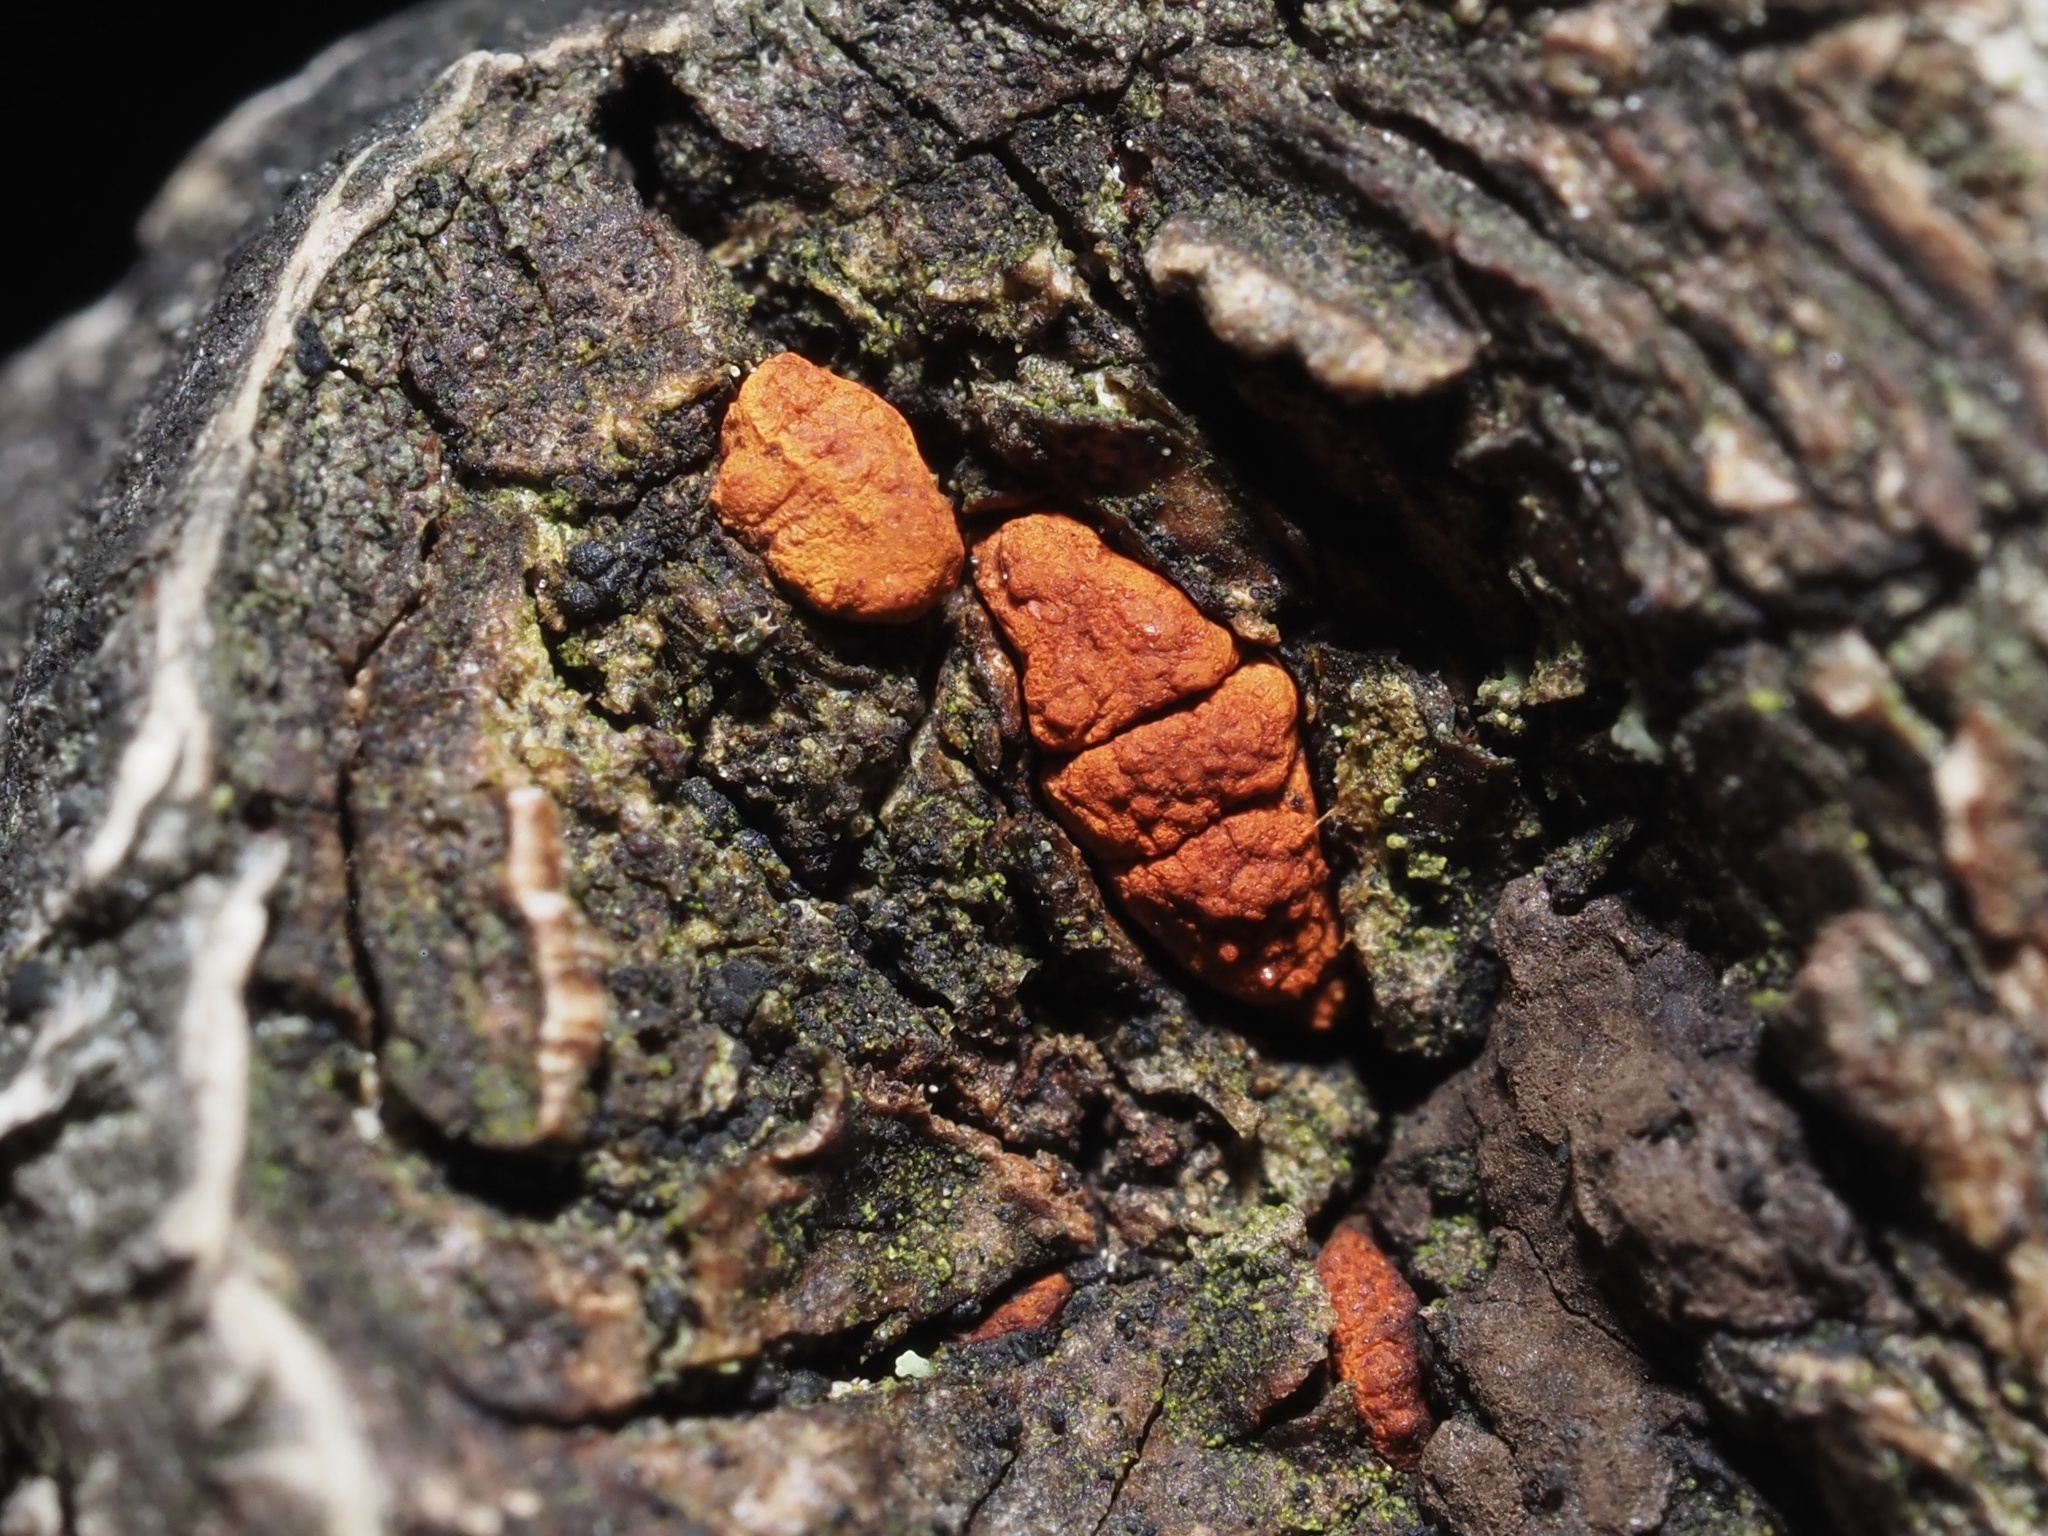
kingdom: Fungi
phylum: Ascomycota
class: Sordariomycetes
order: Diaporthales
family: Cryphonectriaceae
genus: Amphilogia
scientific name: Amphilogia gyrosa
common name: Orange hobnail canker
